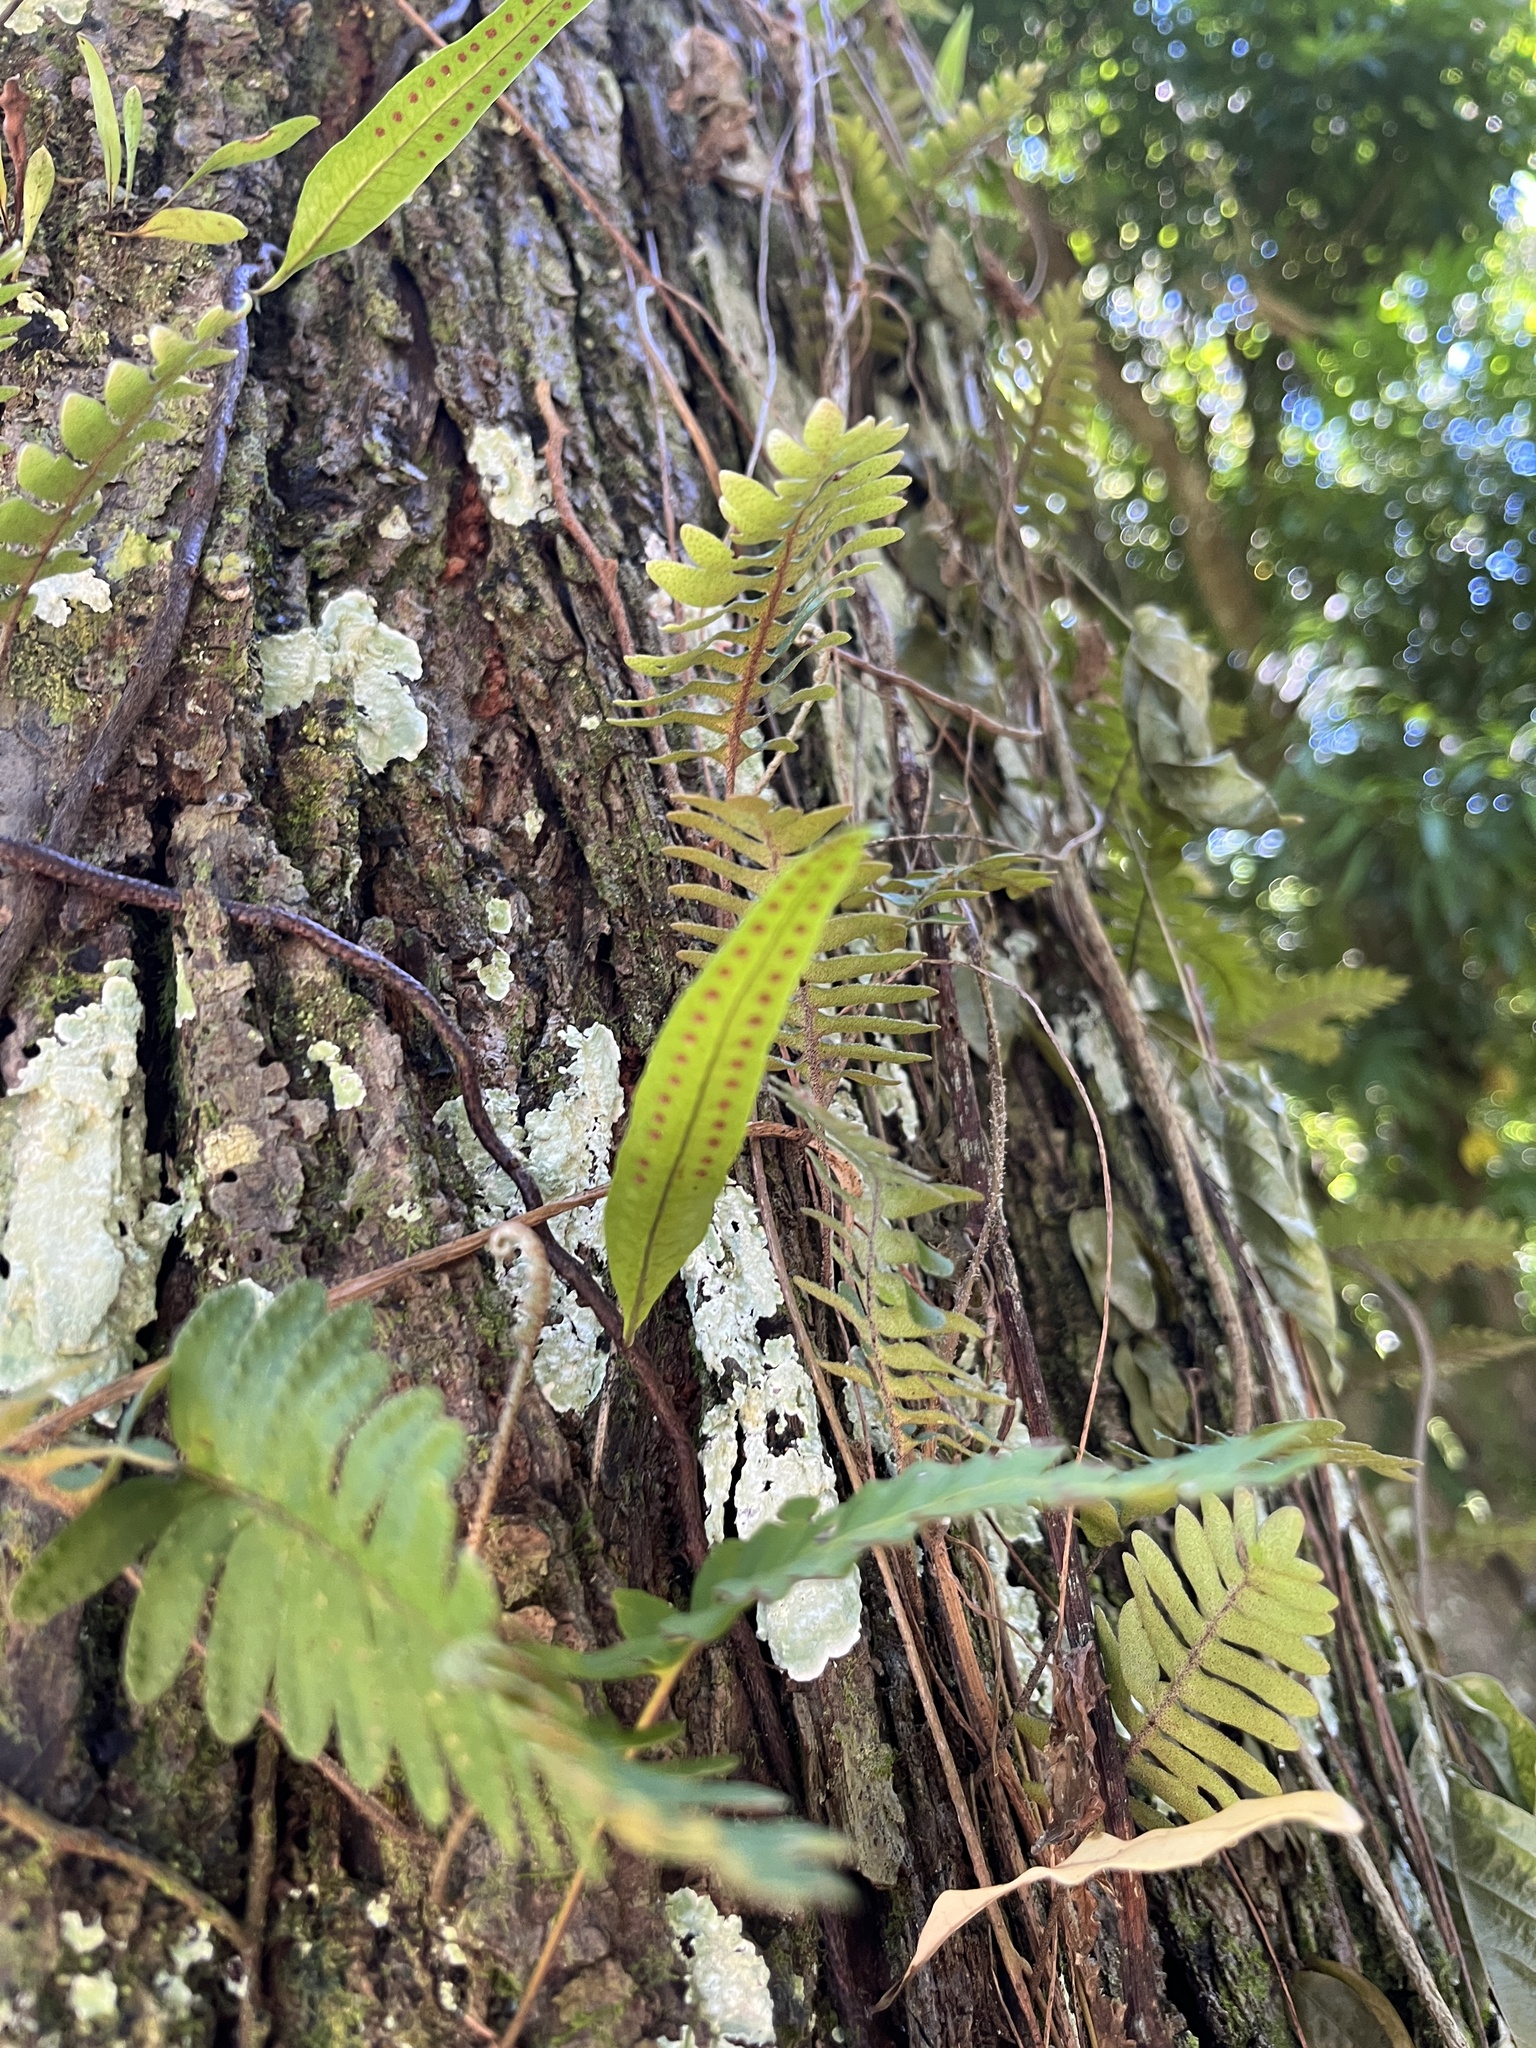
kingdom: Plantae
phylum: Tracheophyta
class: Polypodiopsida
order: Polypodiales
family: Polypodiaceae
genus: Microgramma
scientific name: Microgramma lycopodioides
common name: Bastard catclaw
